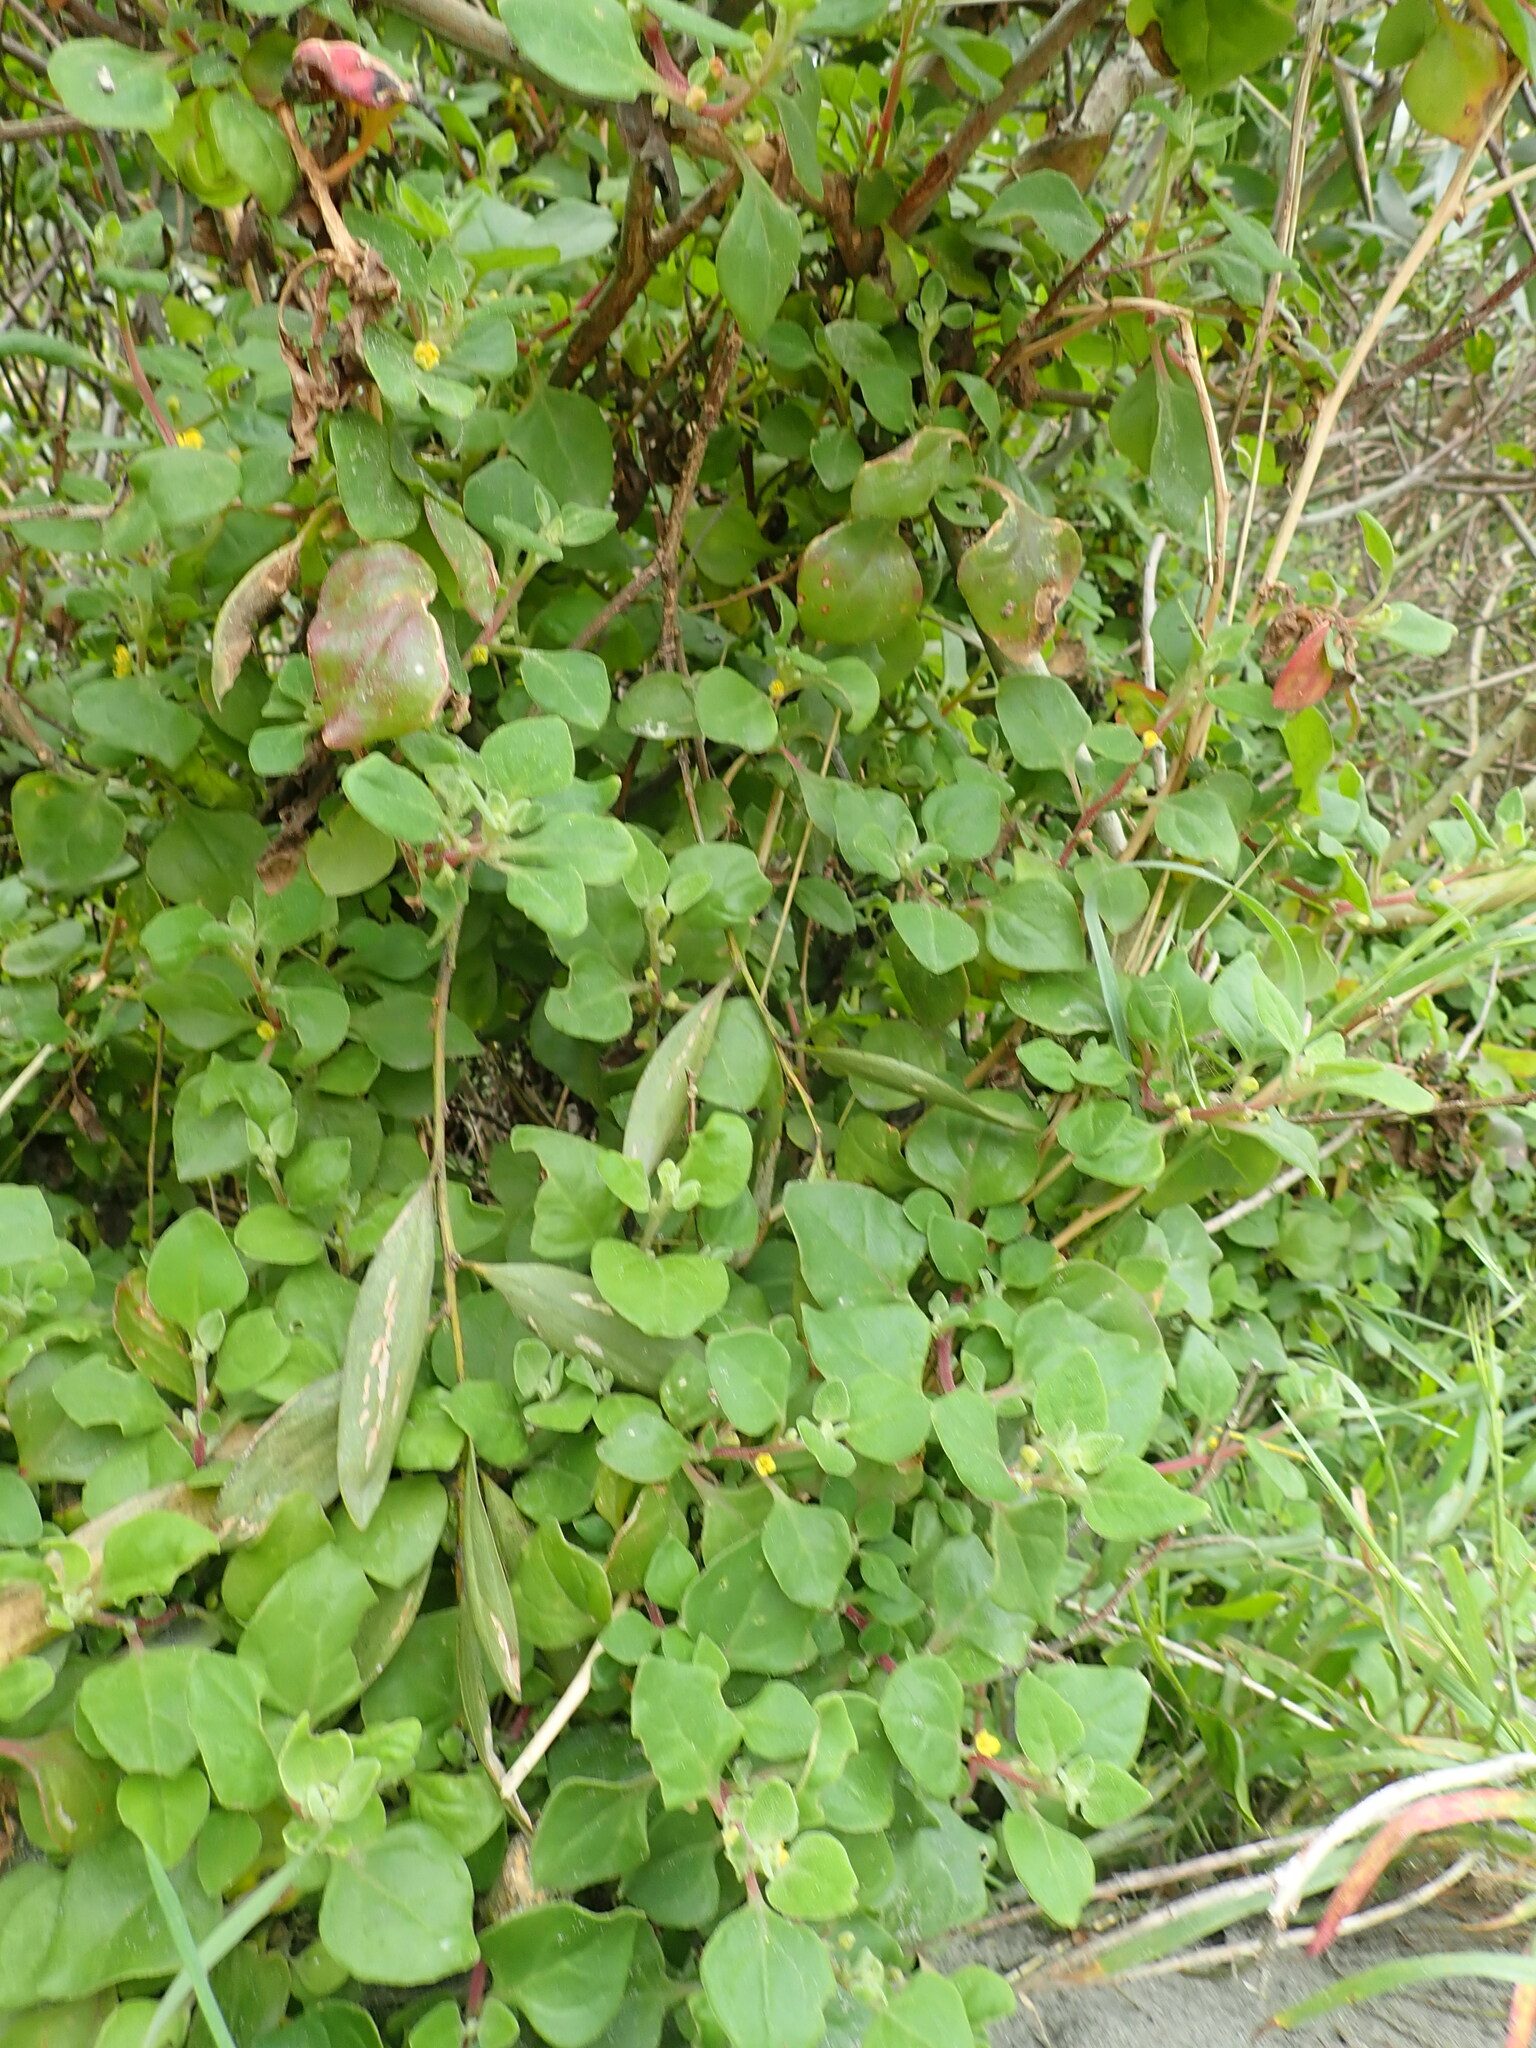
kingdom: Plantae
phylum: Tracheophyta
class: Magnoliopsida
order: Caryophyllales
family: Aizoaceae
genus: Tetragonia
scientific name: Tetragonia implexicoma
